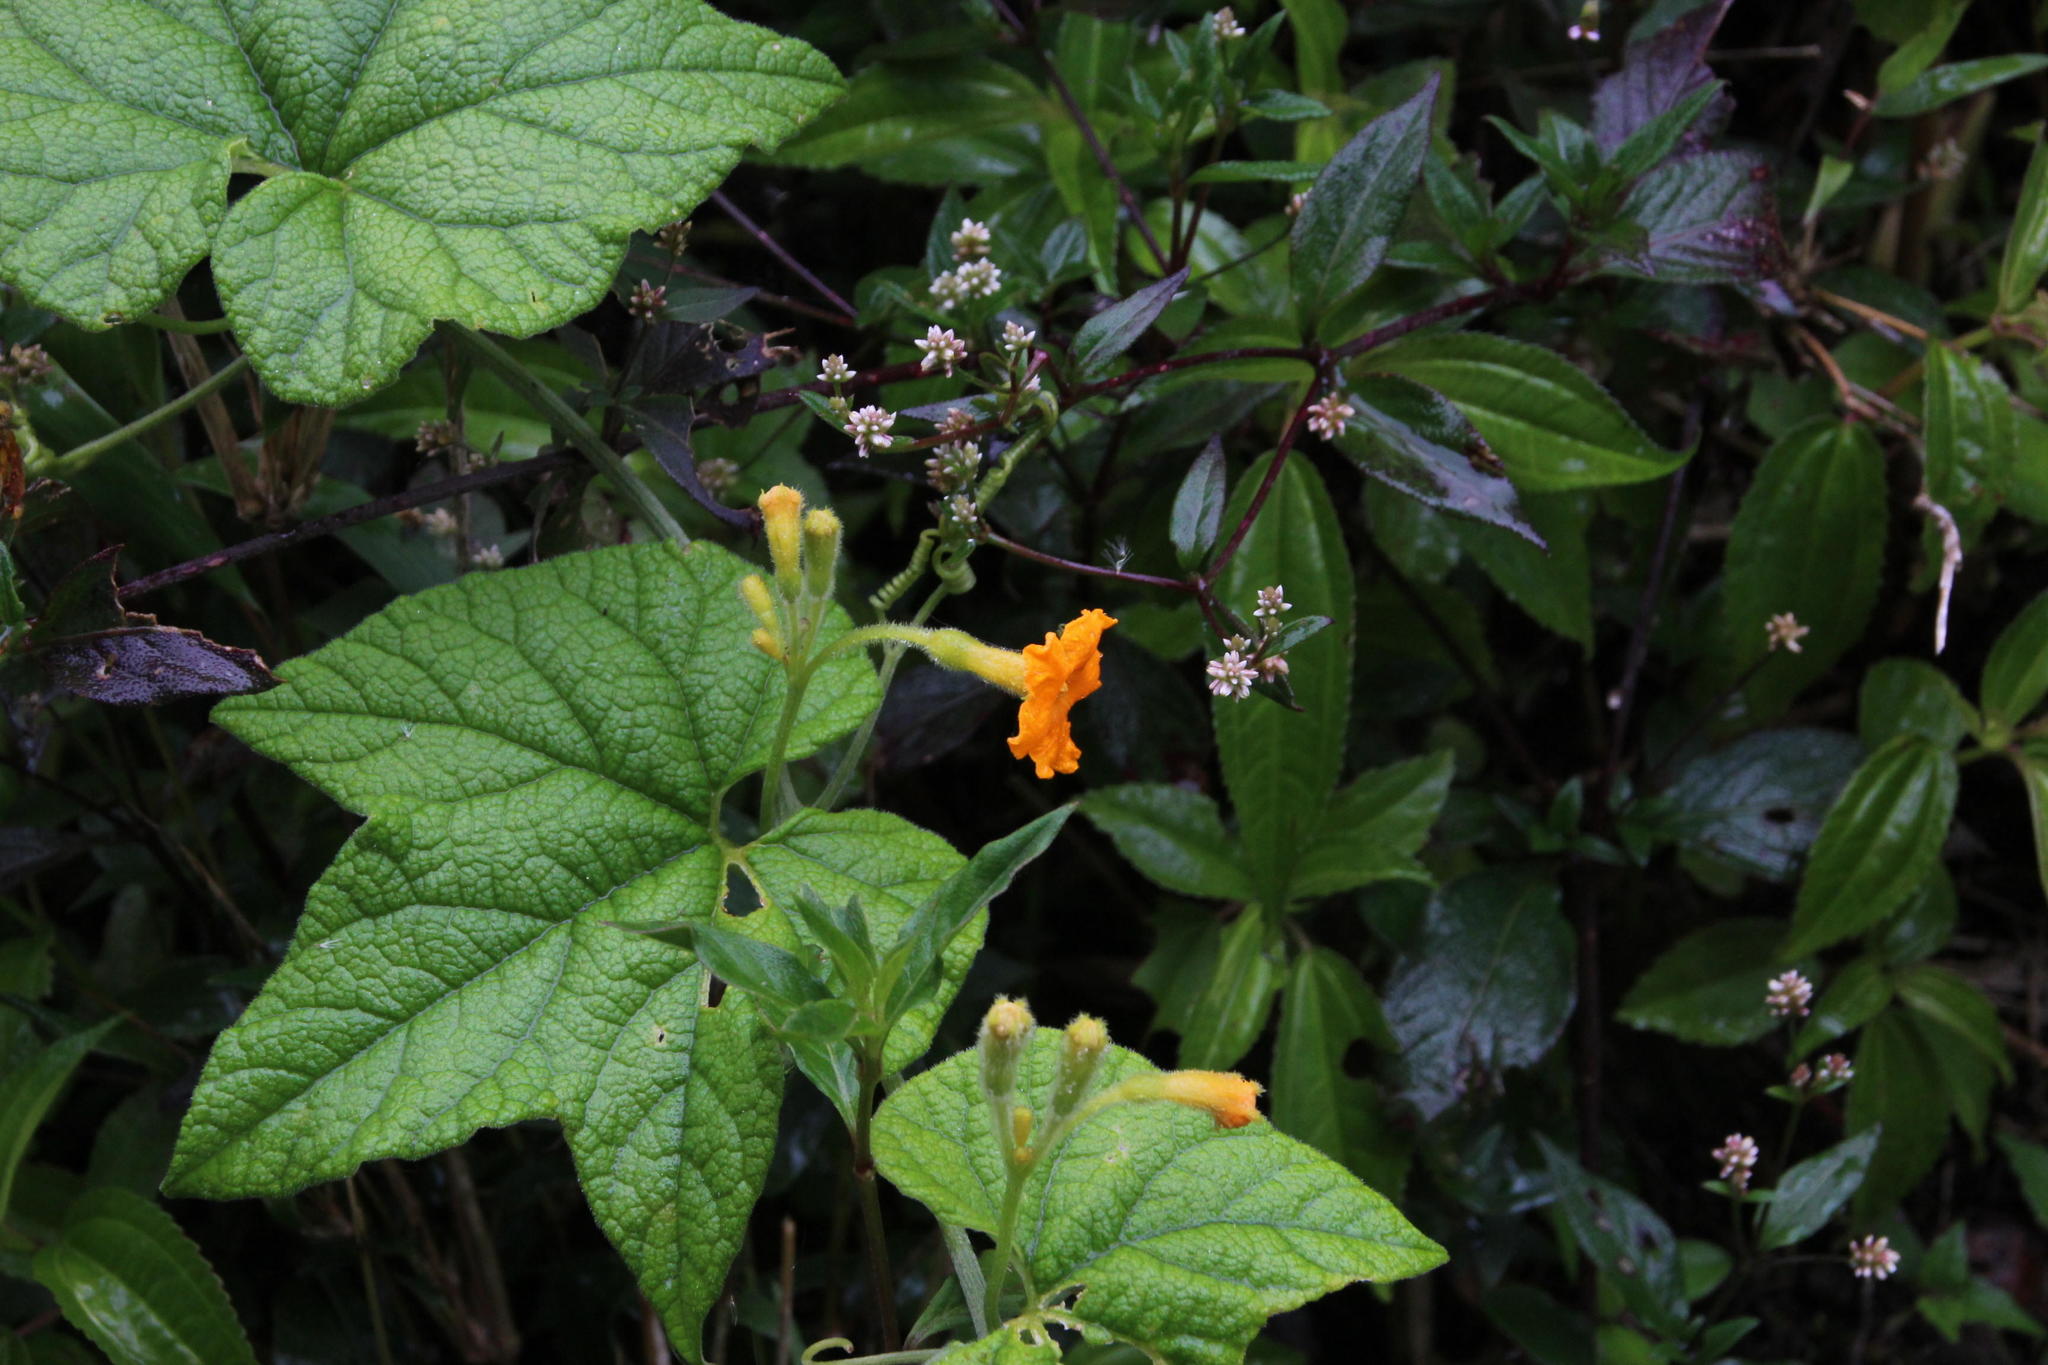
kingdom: Plantae
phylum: Tracheophyta
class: Magnoliopsida
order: Cucurbitales
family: Cucurbitaceae
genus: Apodanthera
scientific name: Apodanthera mandonii
